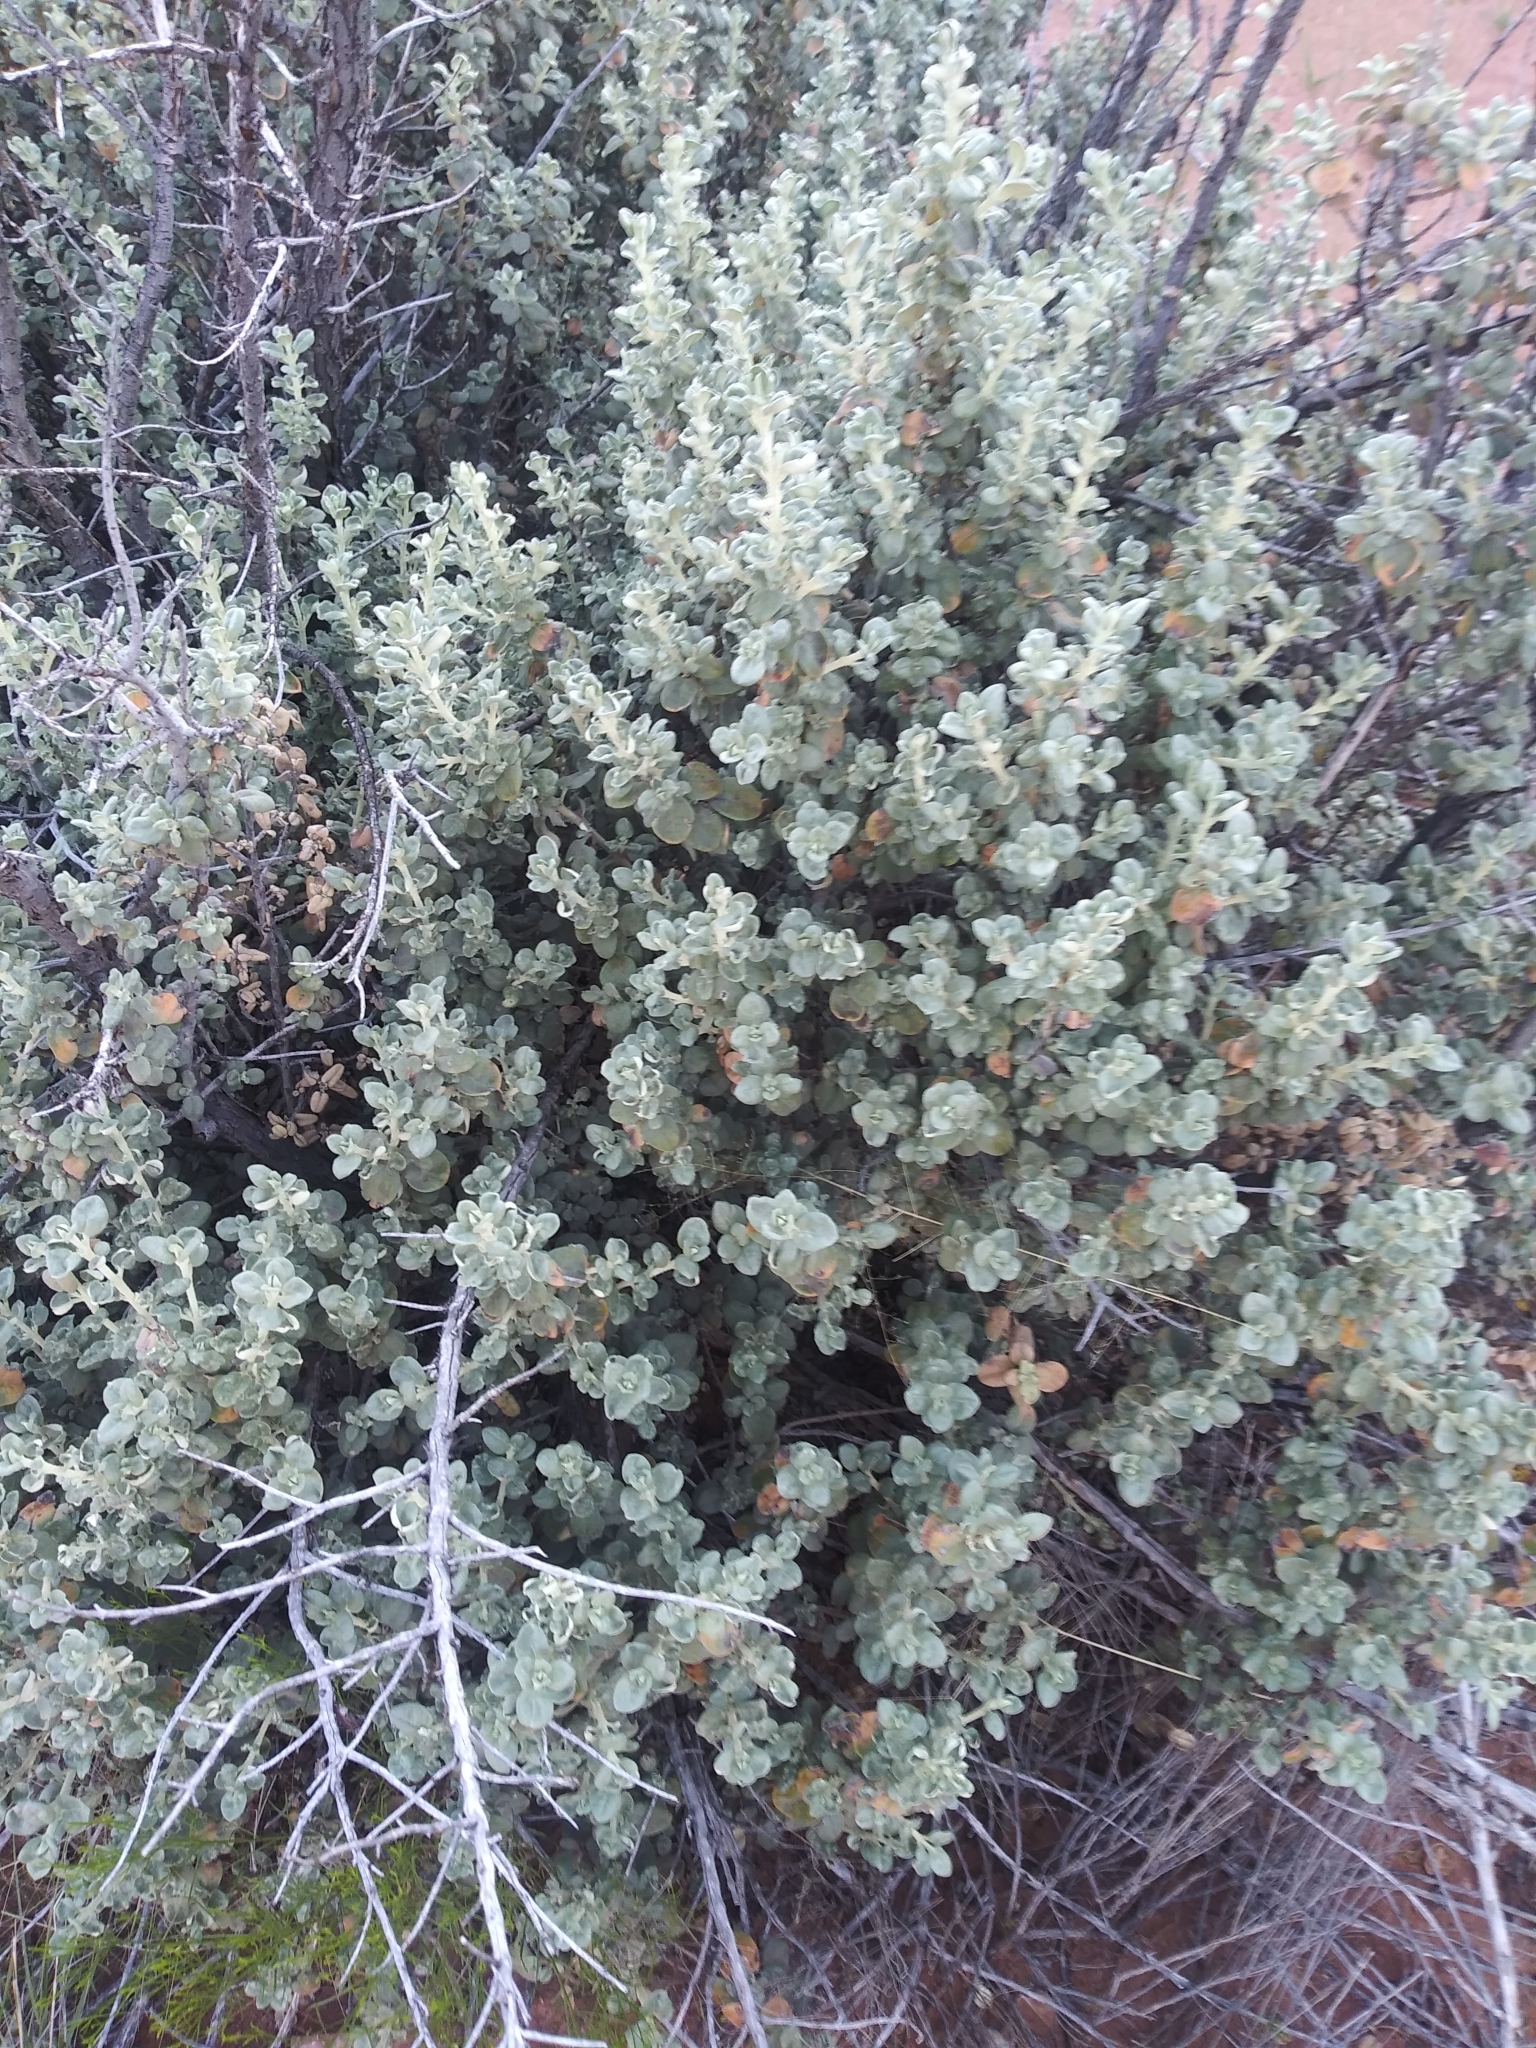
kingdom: Plantae
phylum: Tracheophyta
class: Magnoliopsida
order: Rosales
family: Elaeagnaceae
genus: Shepherdia
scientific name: Shepherdia rotundifolia
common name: Silverscale
